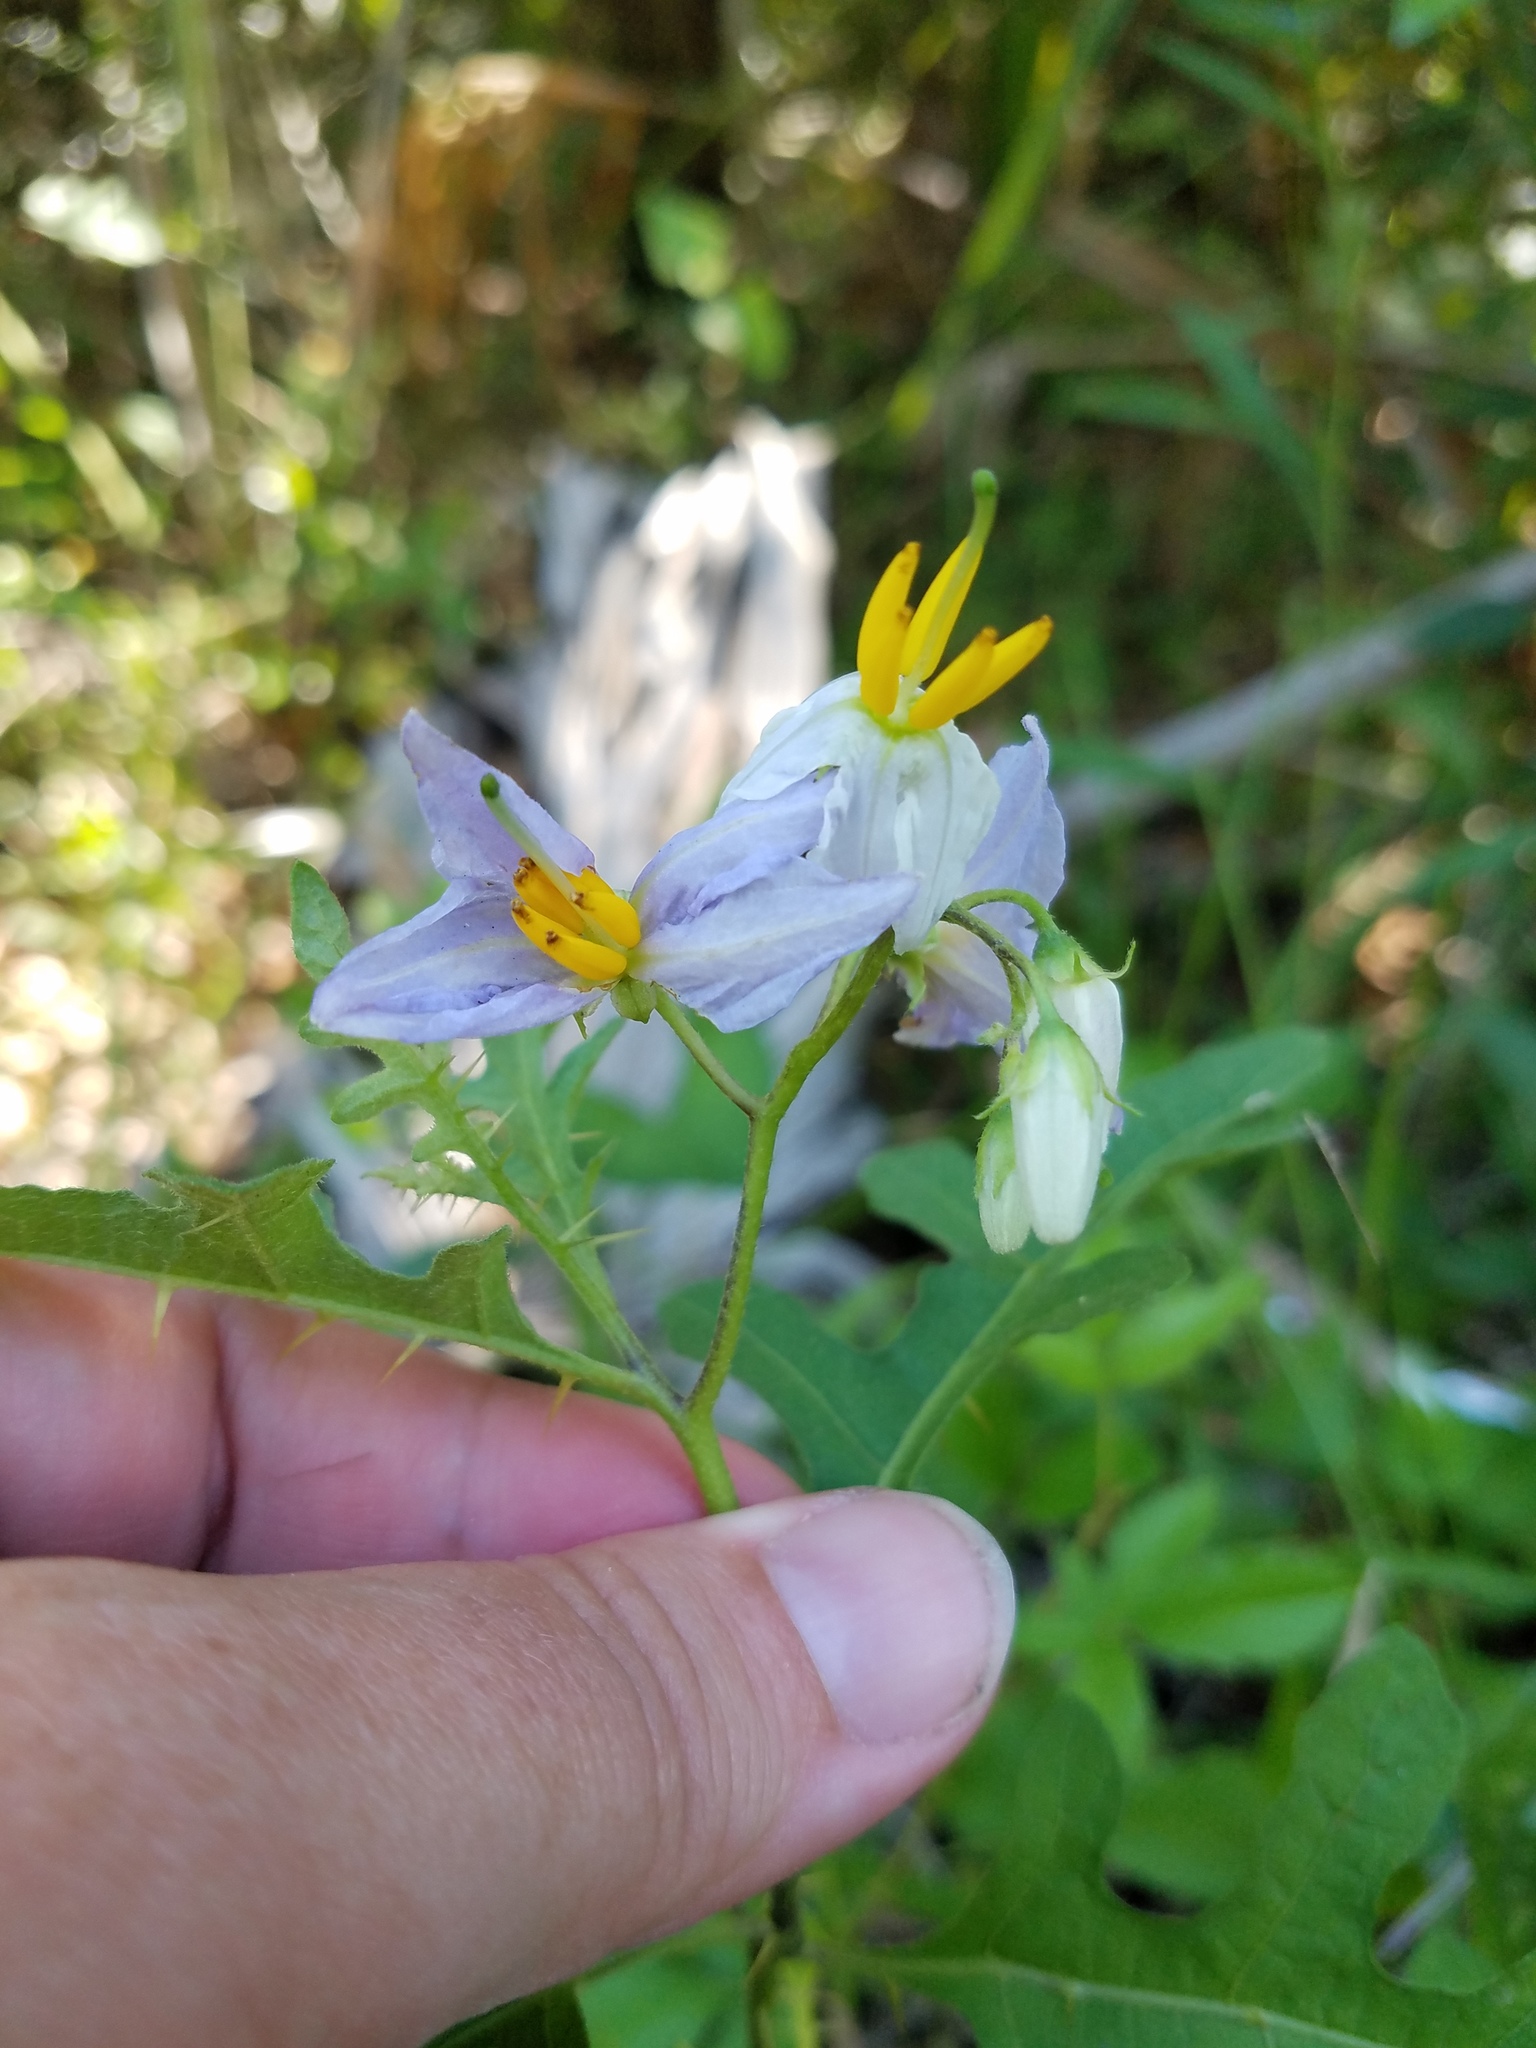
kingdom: Plantae
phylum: Tracheophyta
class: Magnoliopsida
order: Solanales
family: Solanaceae
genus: Solanum
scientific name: Solanum carolinense
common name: Horse-nettle
